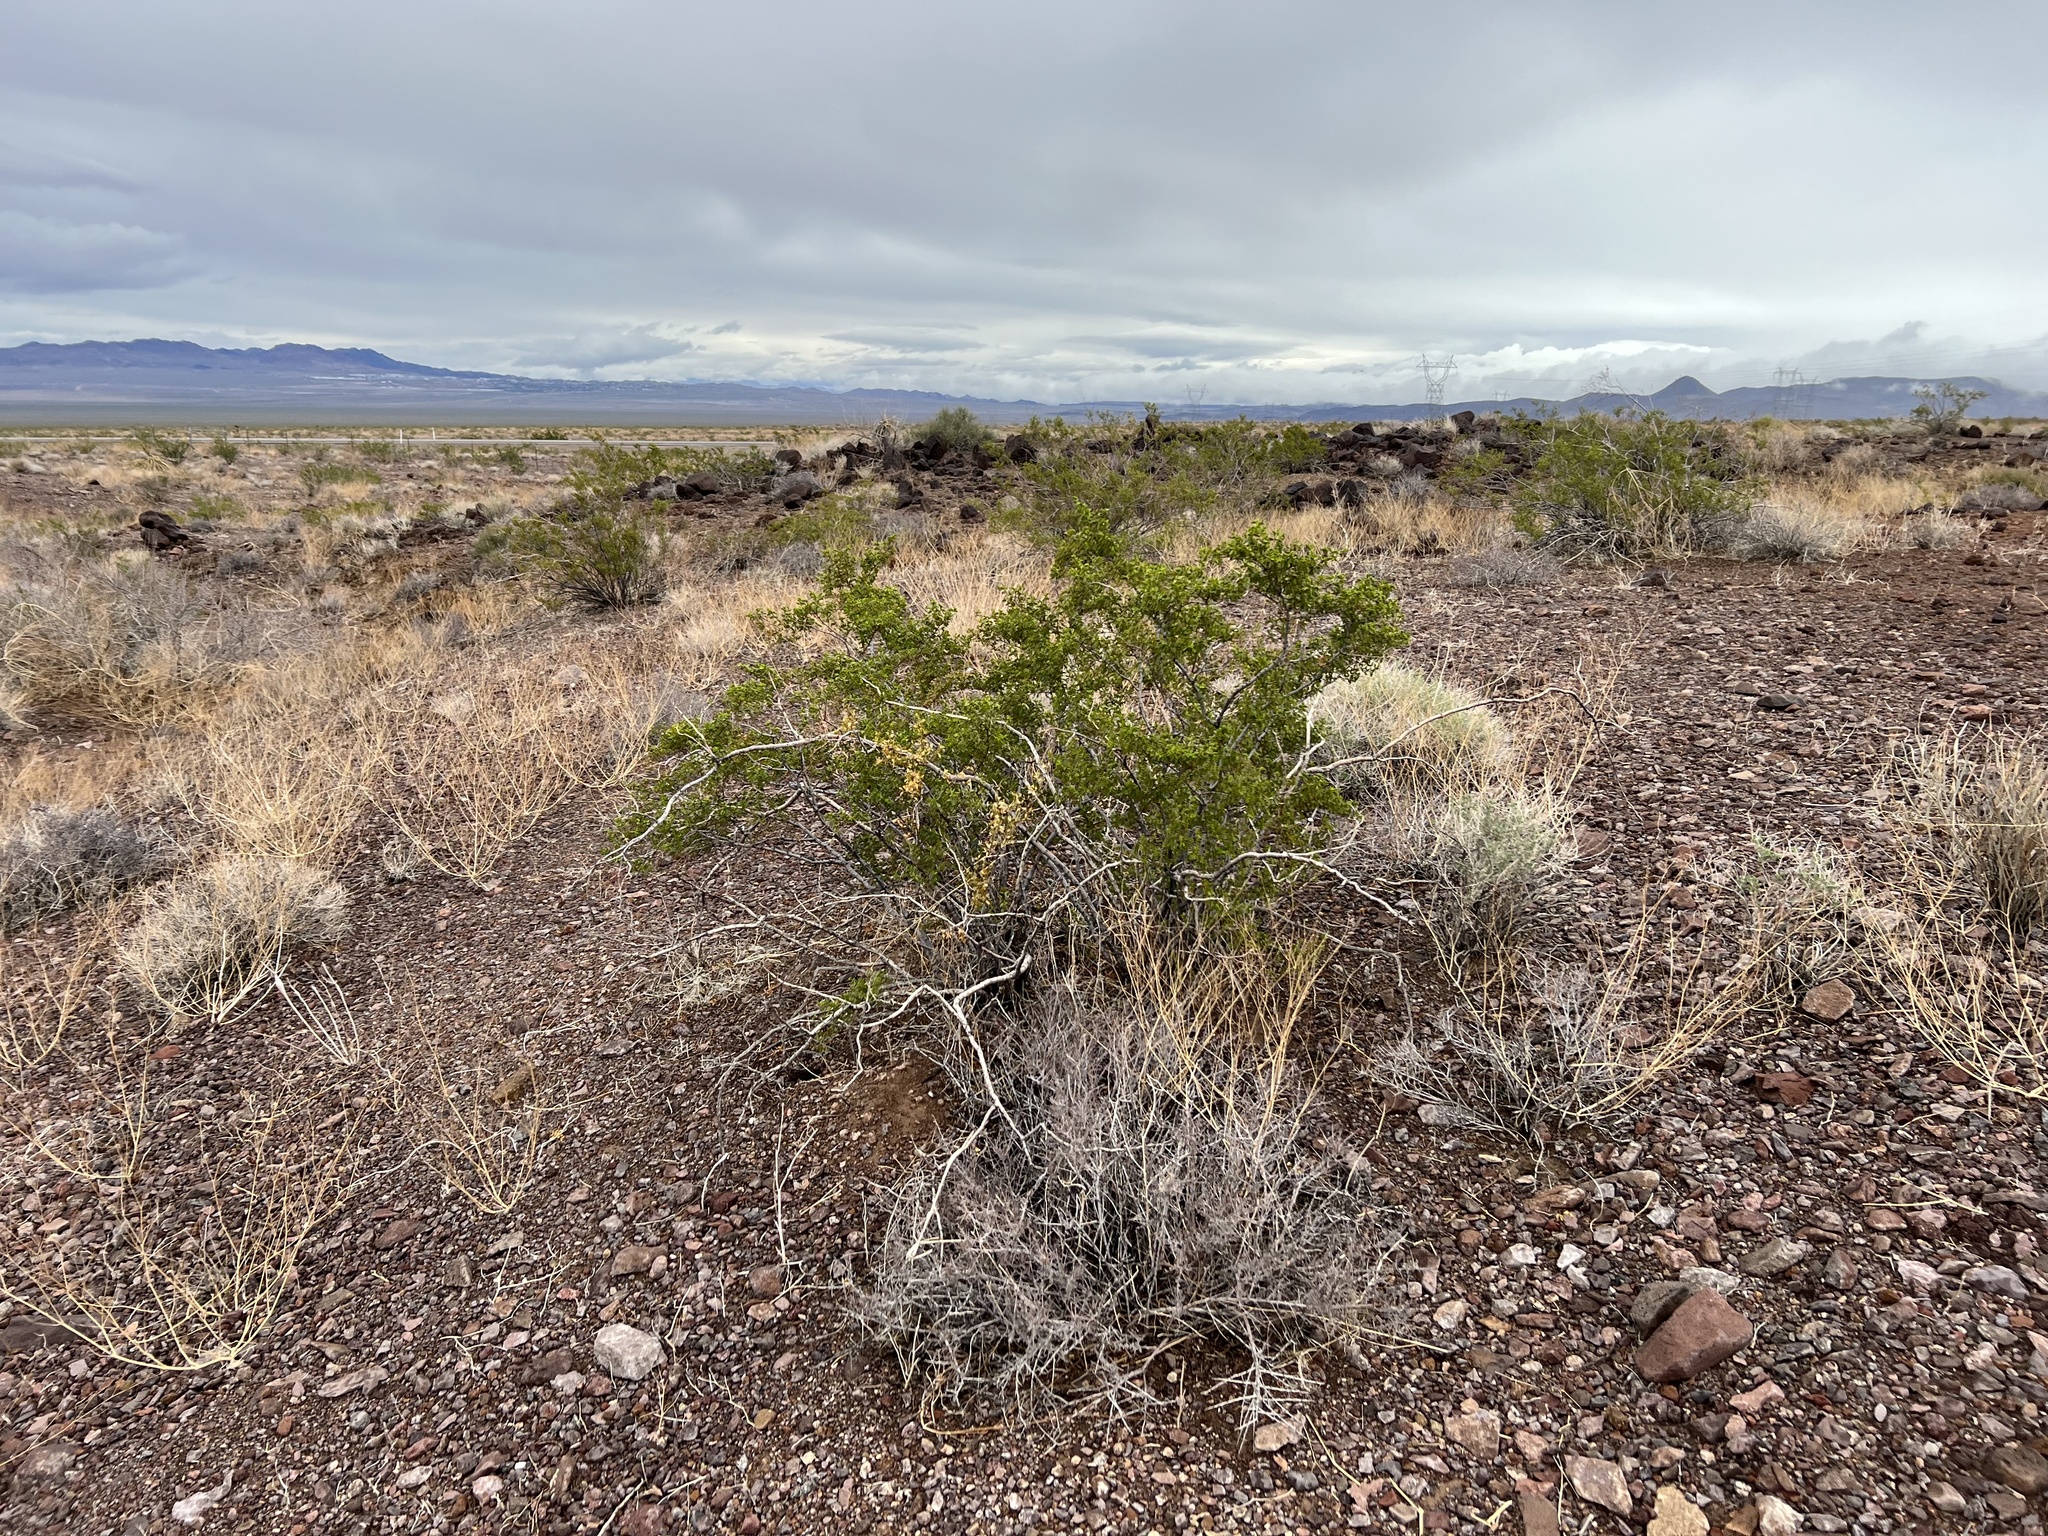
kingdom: Plantae
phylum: Tracheophyta
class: Magnoliopsida
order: Zygophyllales
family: Zygophyllaceae
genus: Larrea
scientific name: Larrea tridentata
